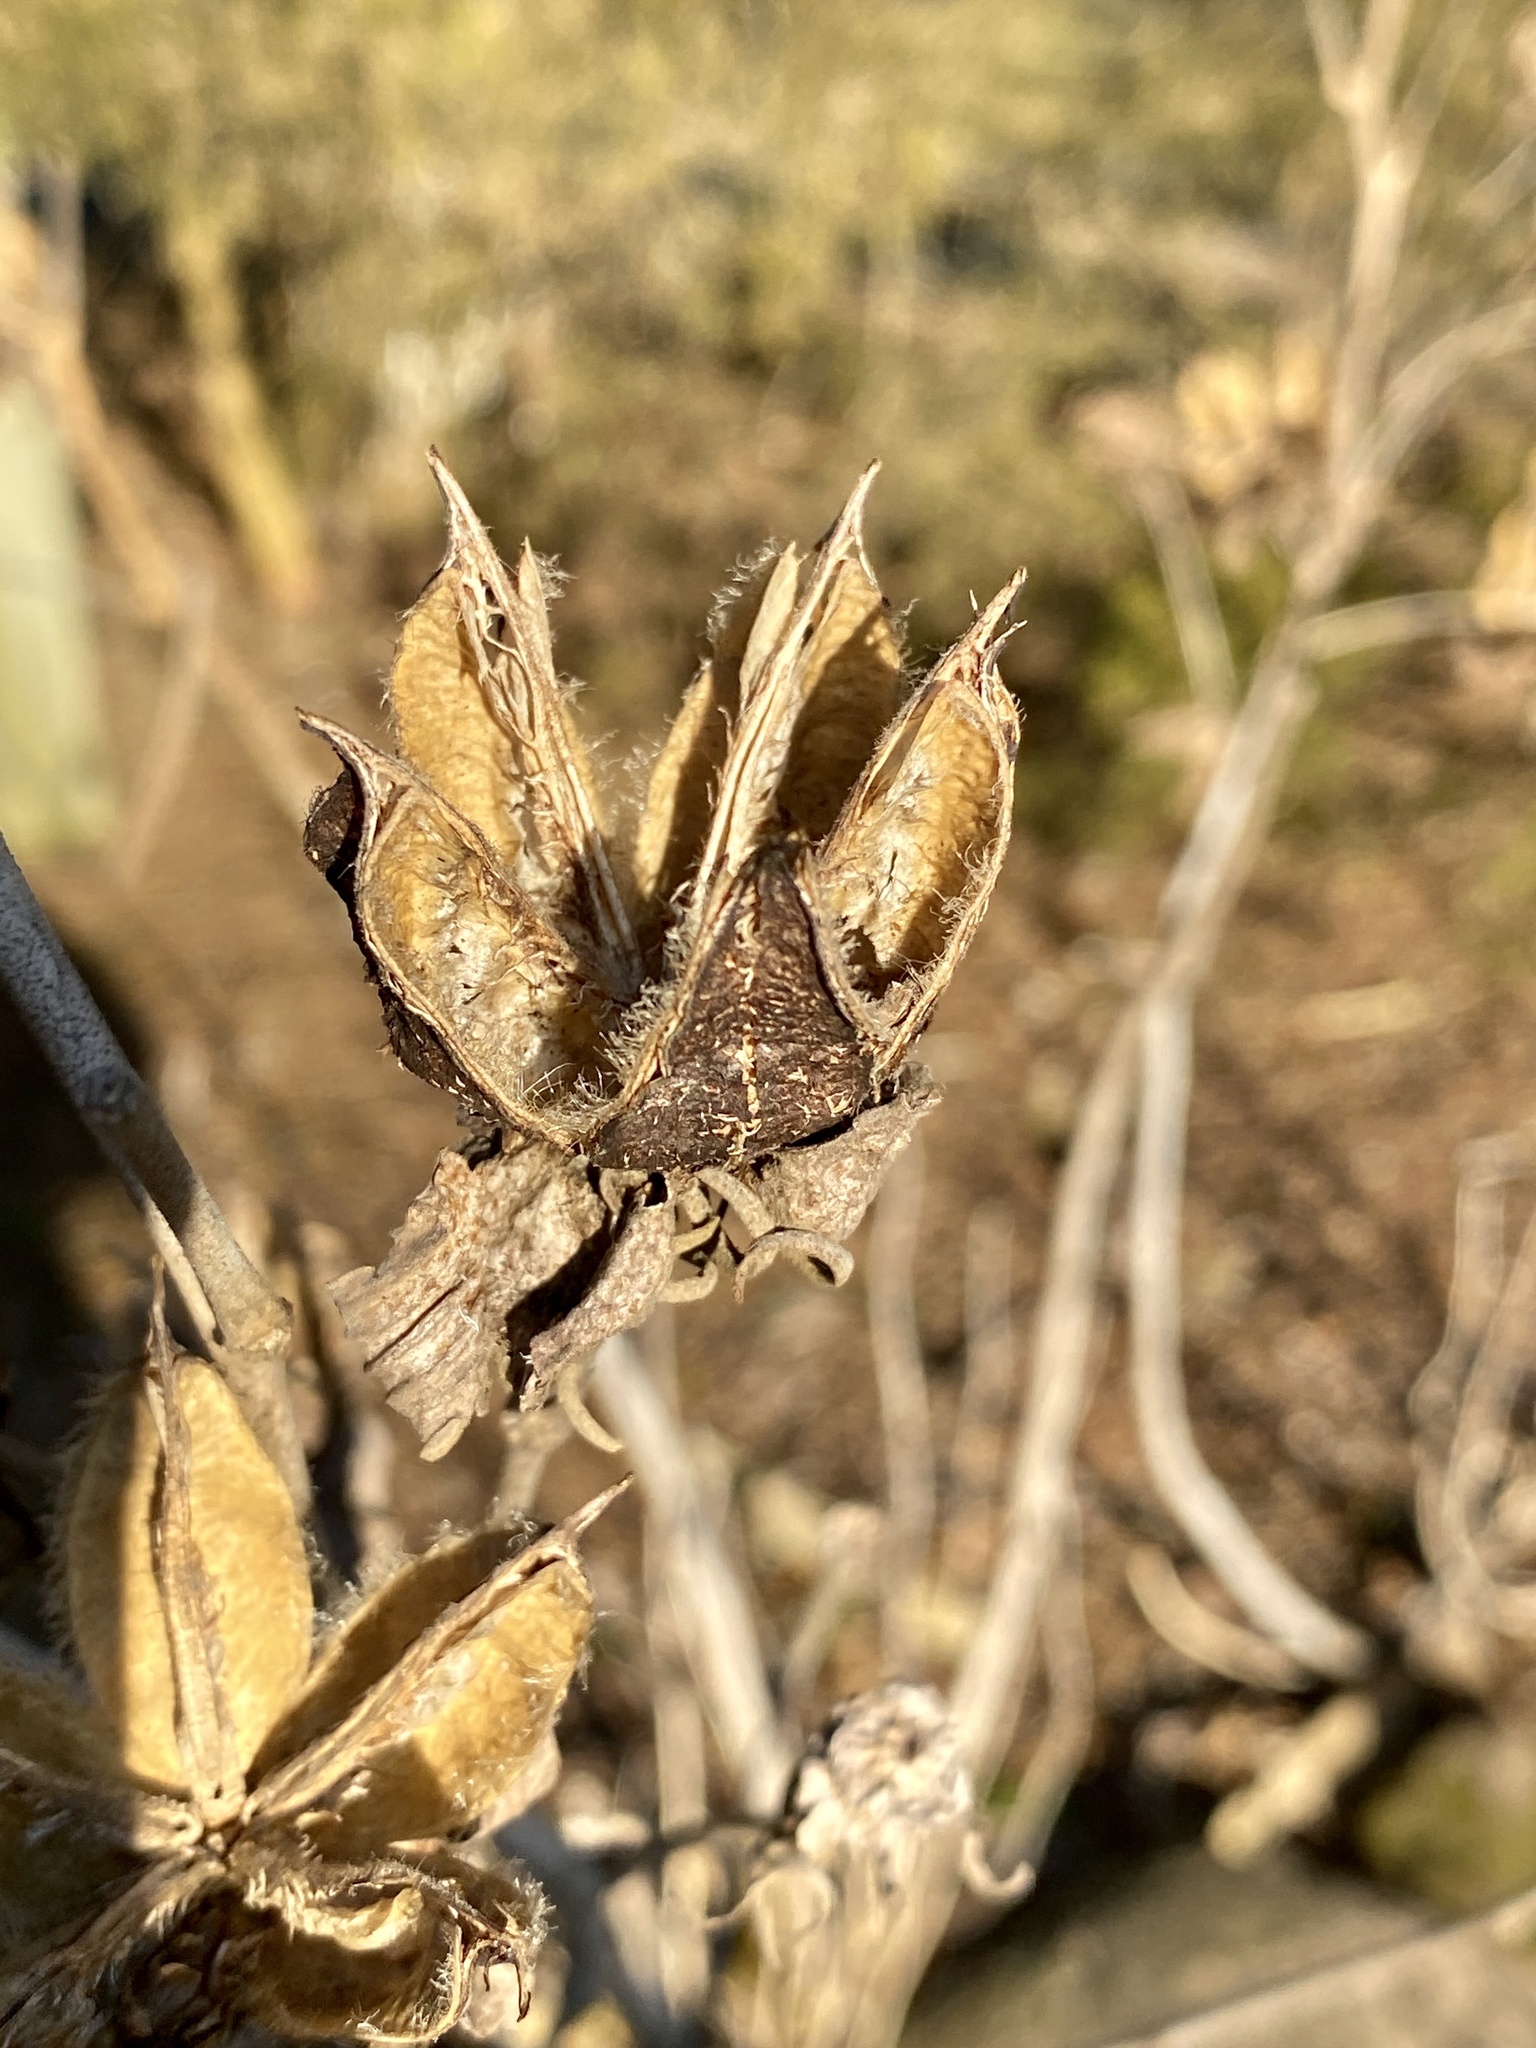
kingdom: Plantae
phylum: Tracheophyta
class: Magnoliopsida
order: Malvales
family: Malvaceae
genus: Hibiscus
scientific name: Hibiscus moscheutos
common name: Common rose-mallow
